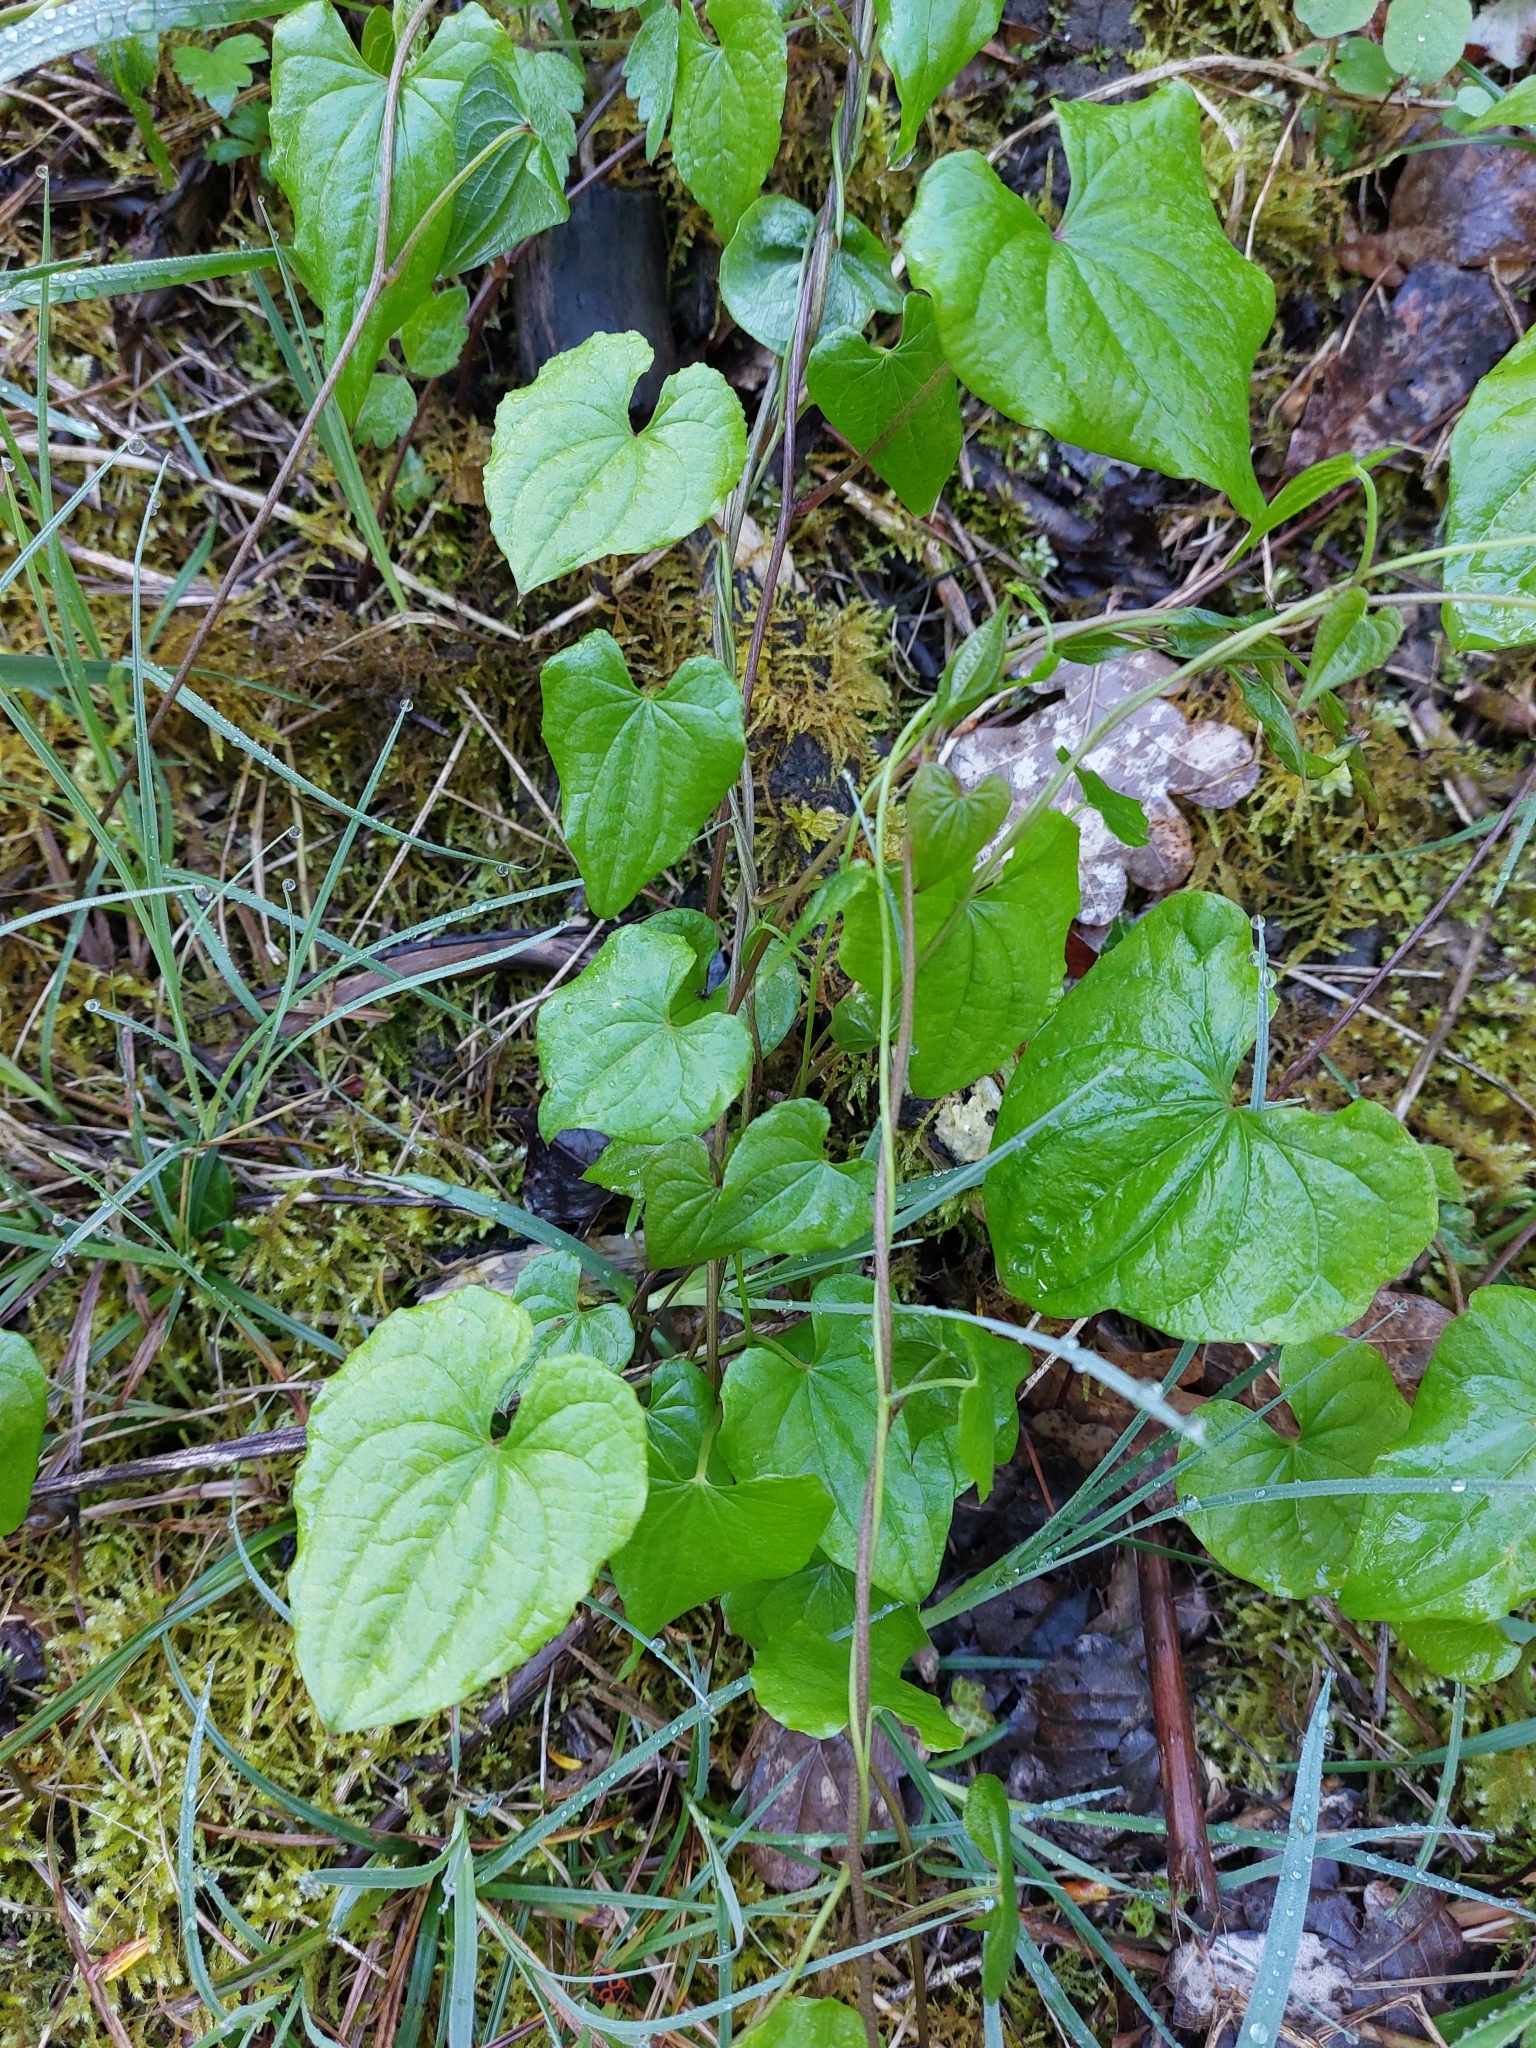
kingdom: Plantae
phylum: Tracheophyta
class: Liliopsida
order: Dioscoreales
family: Dioscoreaceae
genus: Dioscorea
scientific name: Dioscorea communis
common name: Black-bindweed
